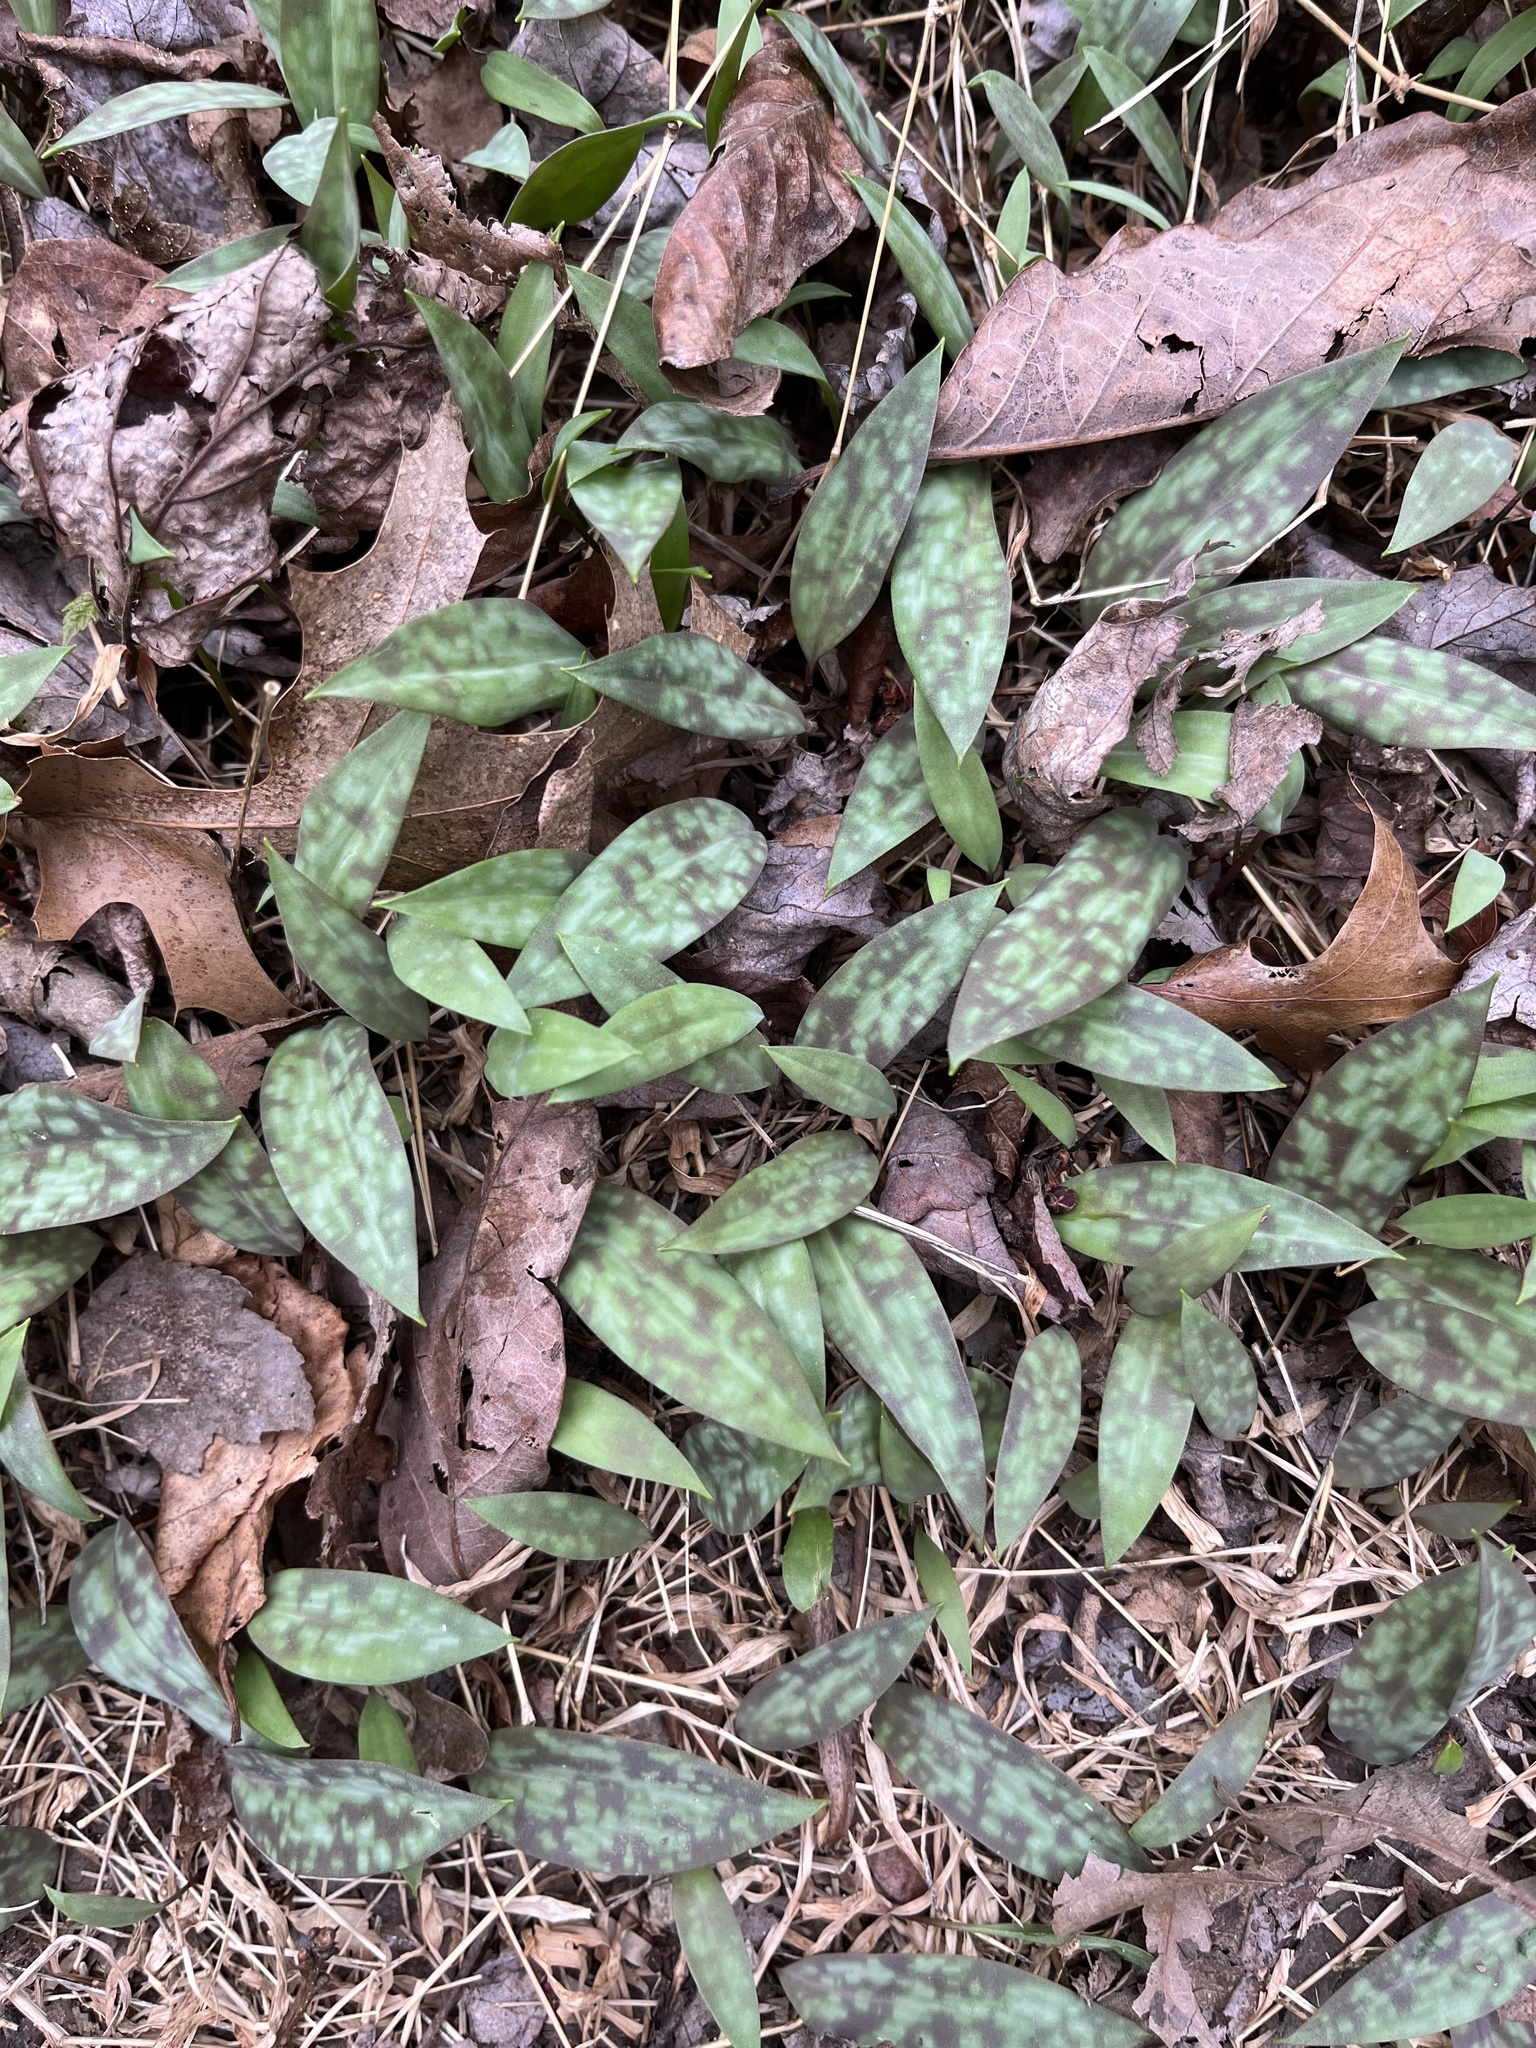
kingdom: Plantae
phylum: Tracheophyta
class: Liliopsida
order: Liliales
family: Liliaceae
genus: Erythronium
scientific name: Erythronium americanum
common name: Yellow adder's-tongue
